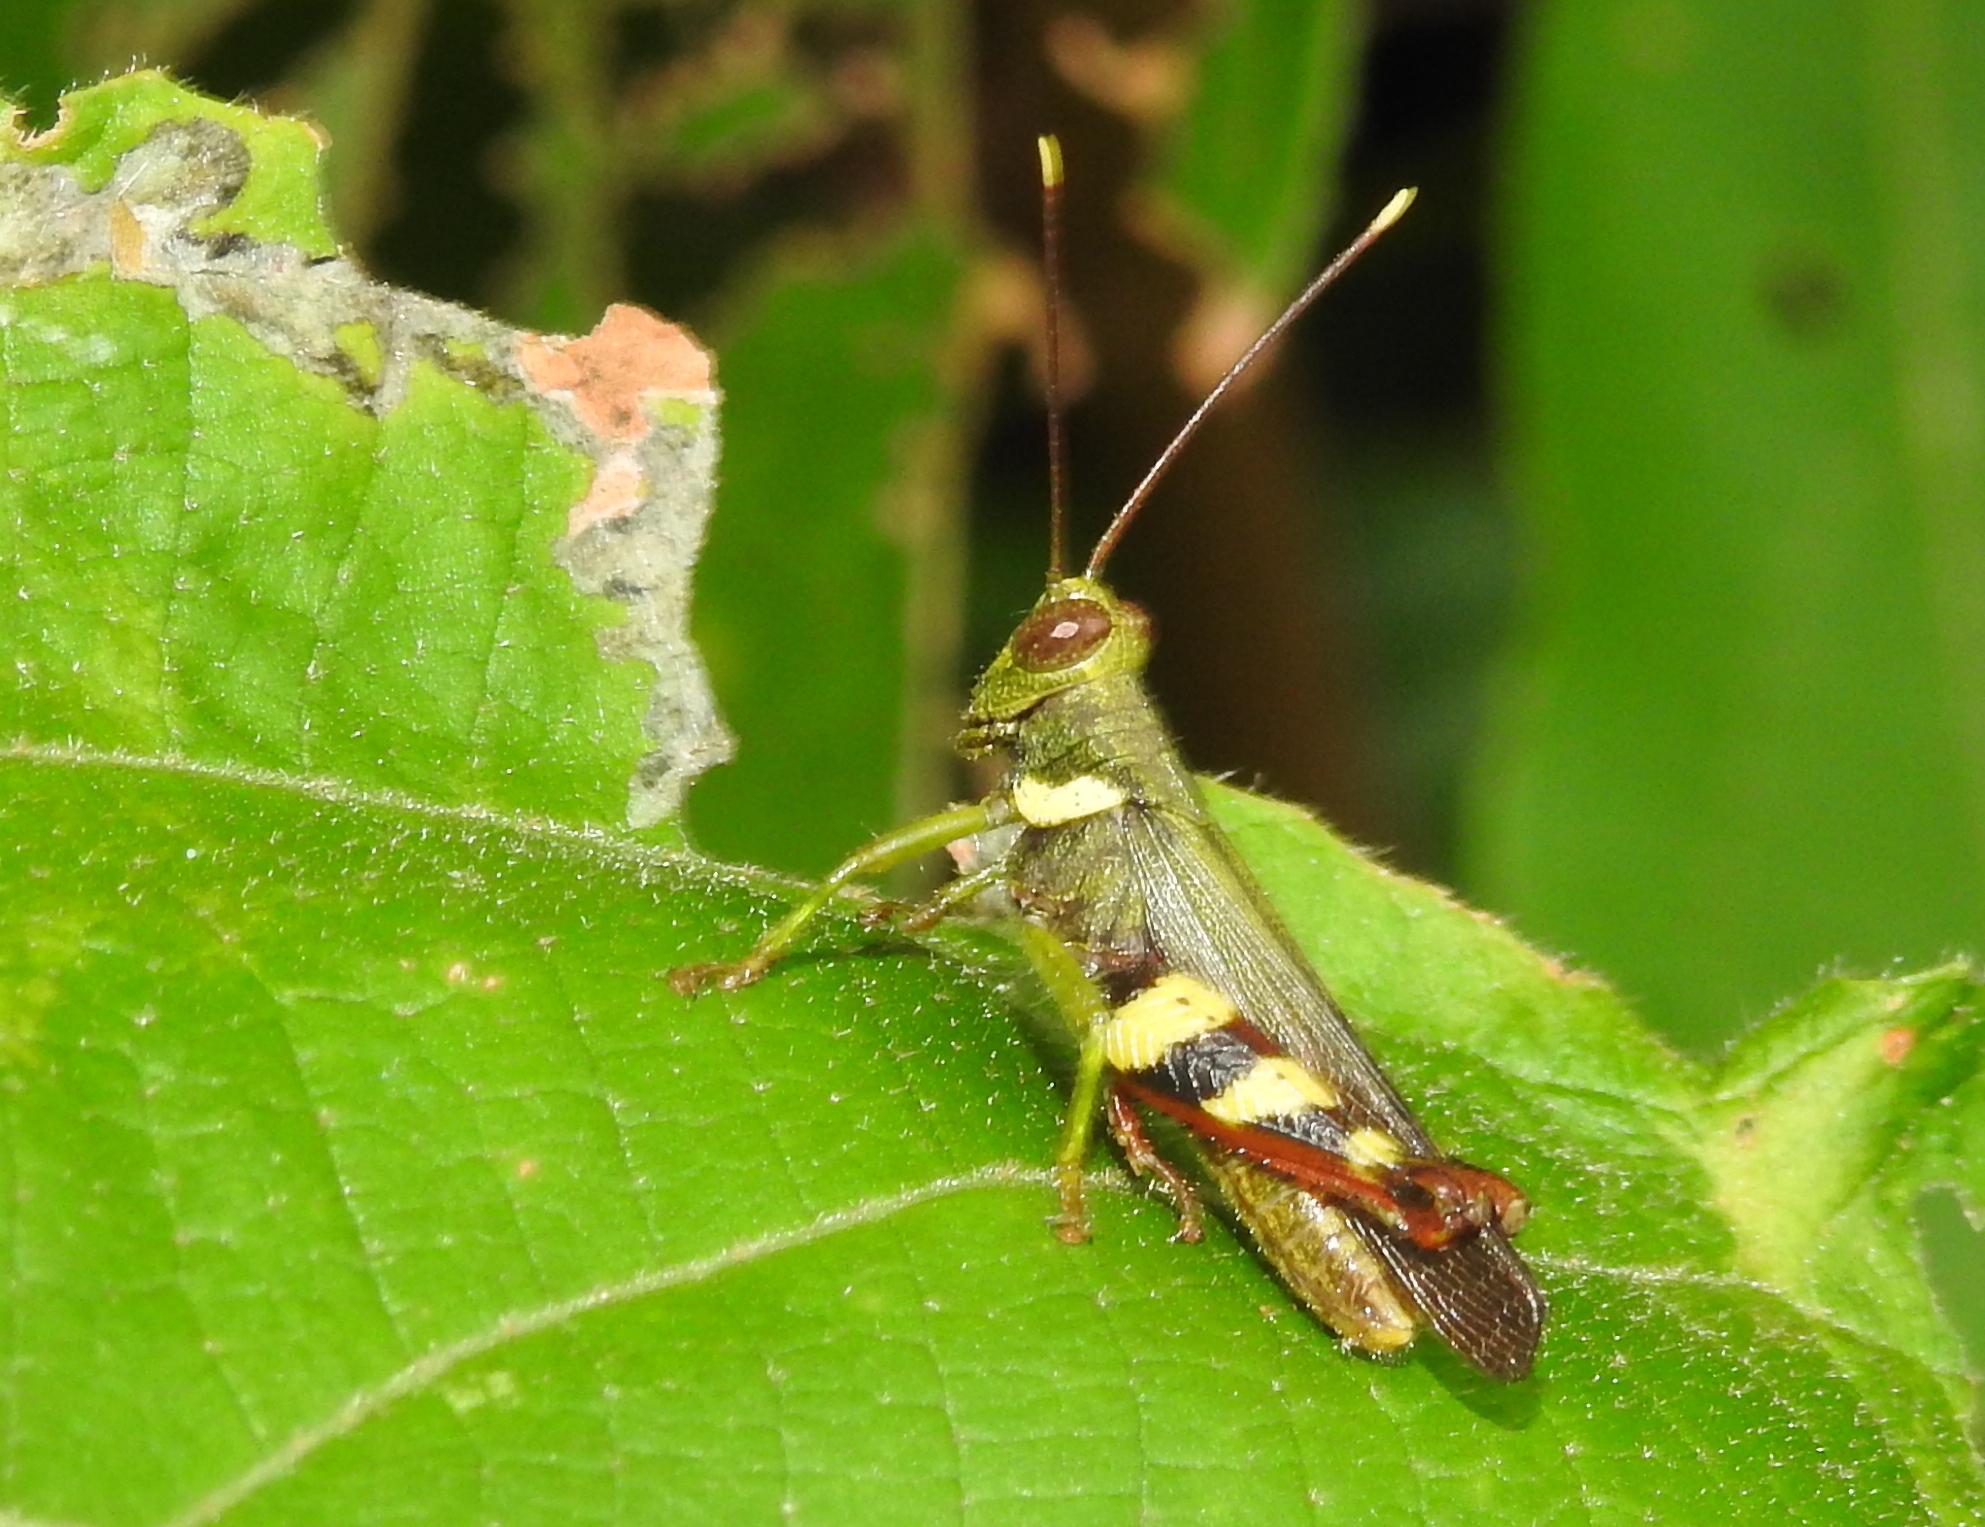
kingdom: Animalia
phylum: Arthropoda
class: Insecta
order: Orthoptera
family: Acrididae
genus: Apalacris
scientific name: Apalacris varicornis
